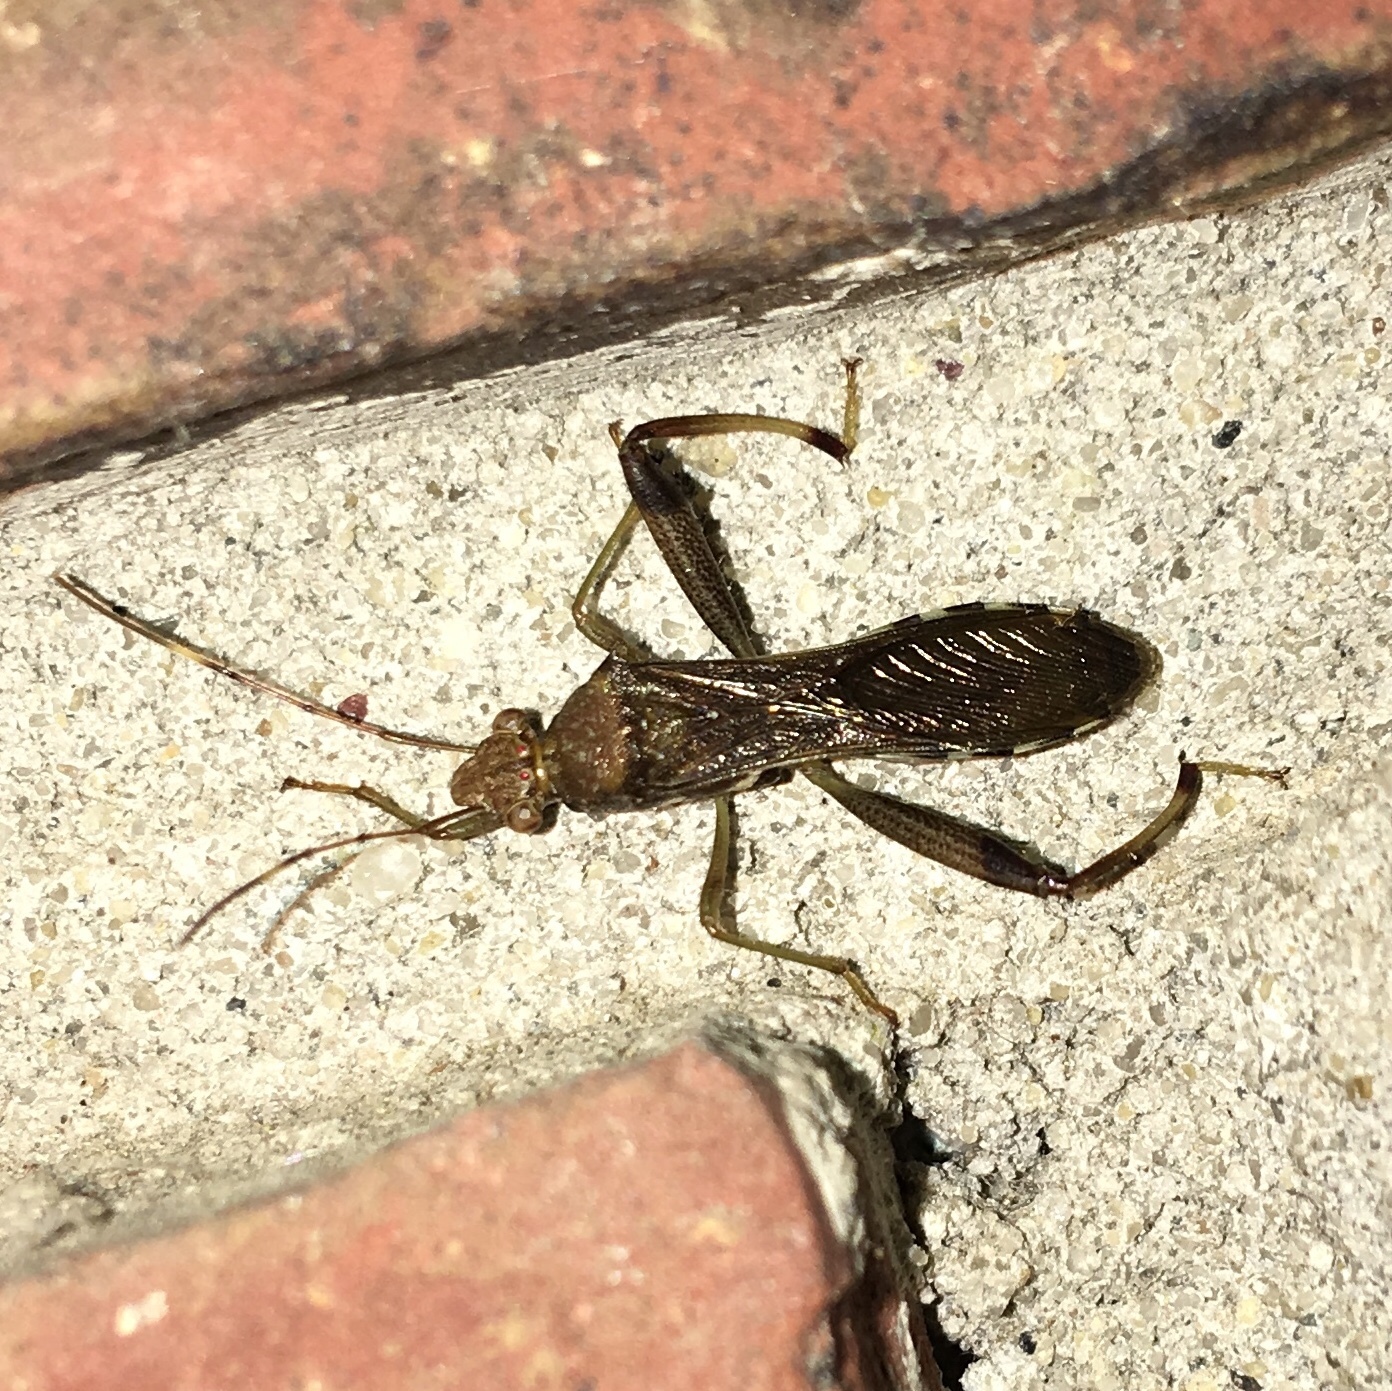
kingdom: Animalia
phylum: Arthropoda
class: Insecta
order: Hemiptera
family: Alydidae
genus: Hyalymenus
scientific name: Hyalymenus tarsatus
